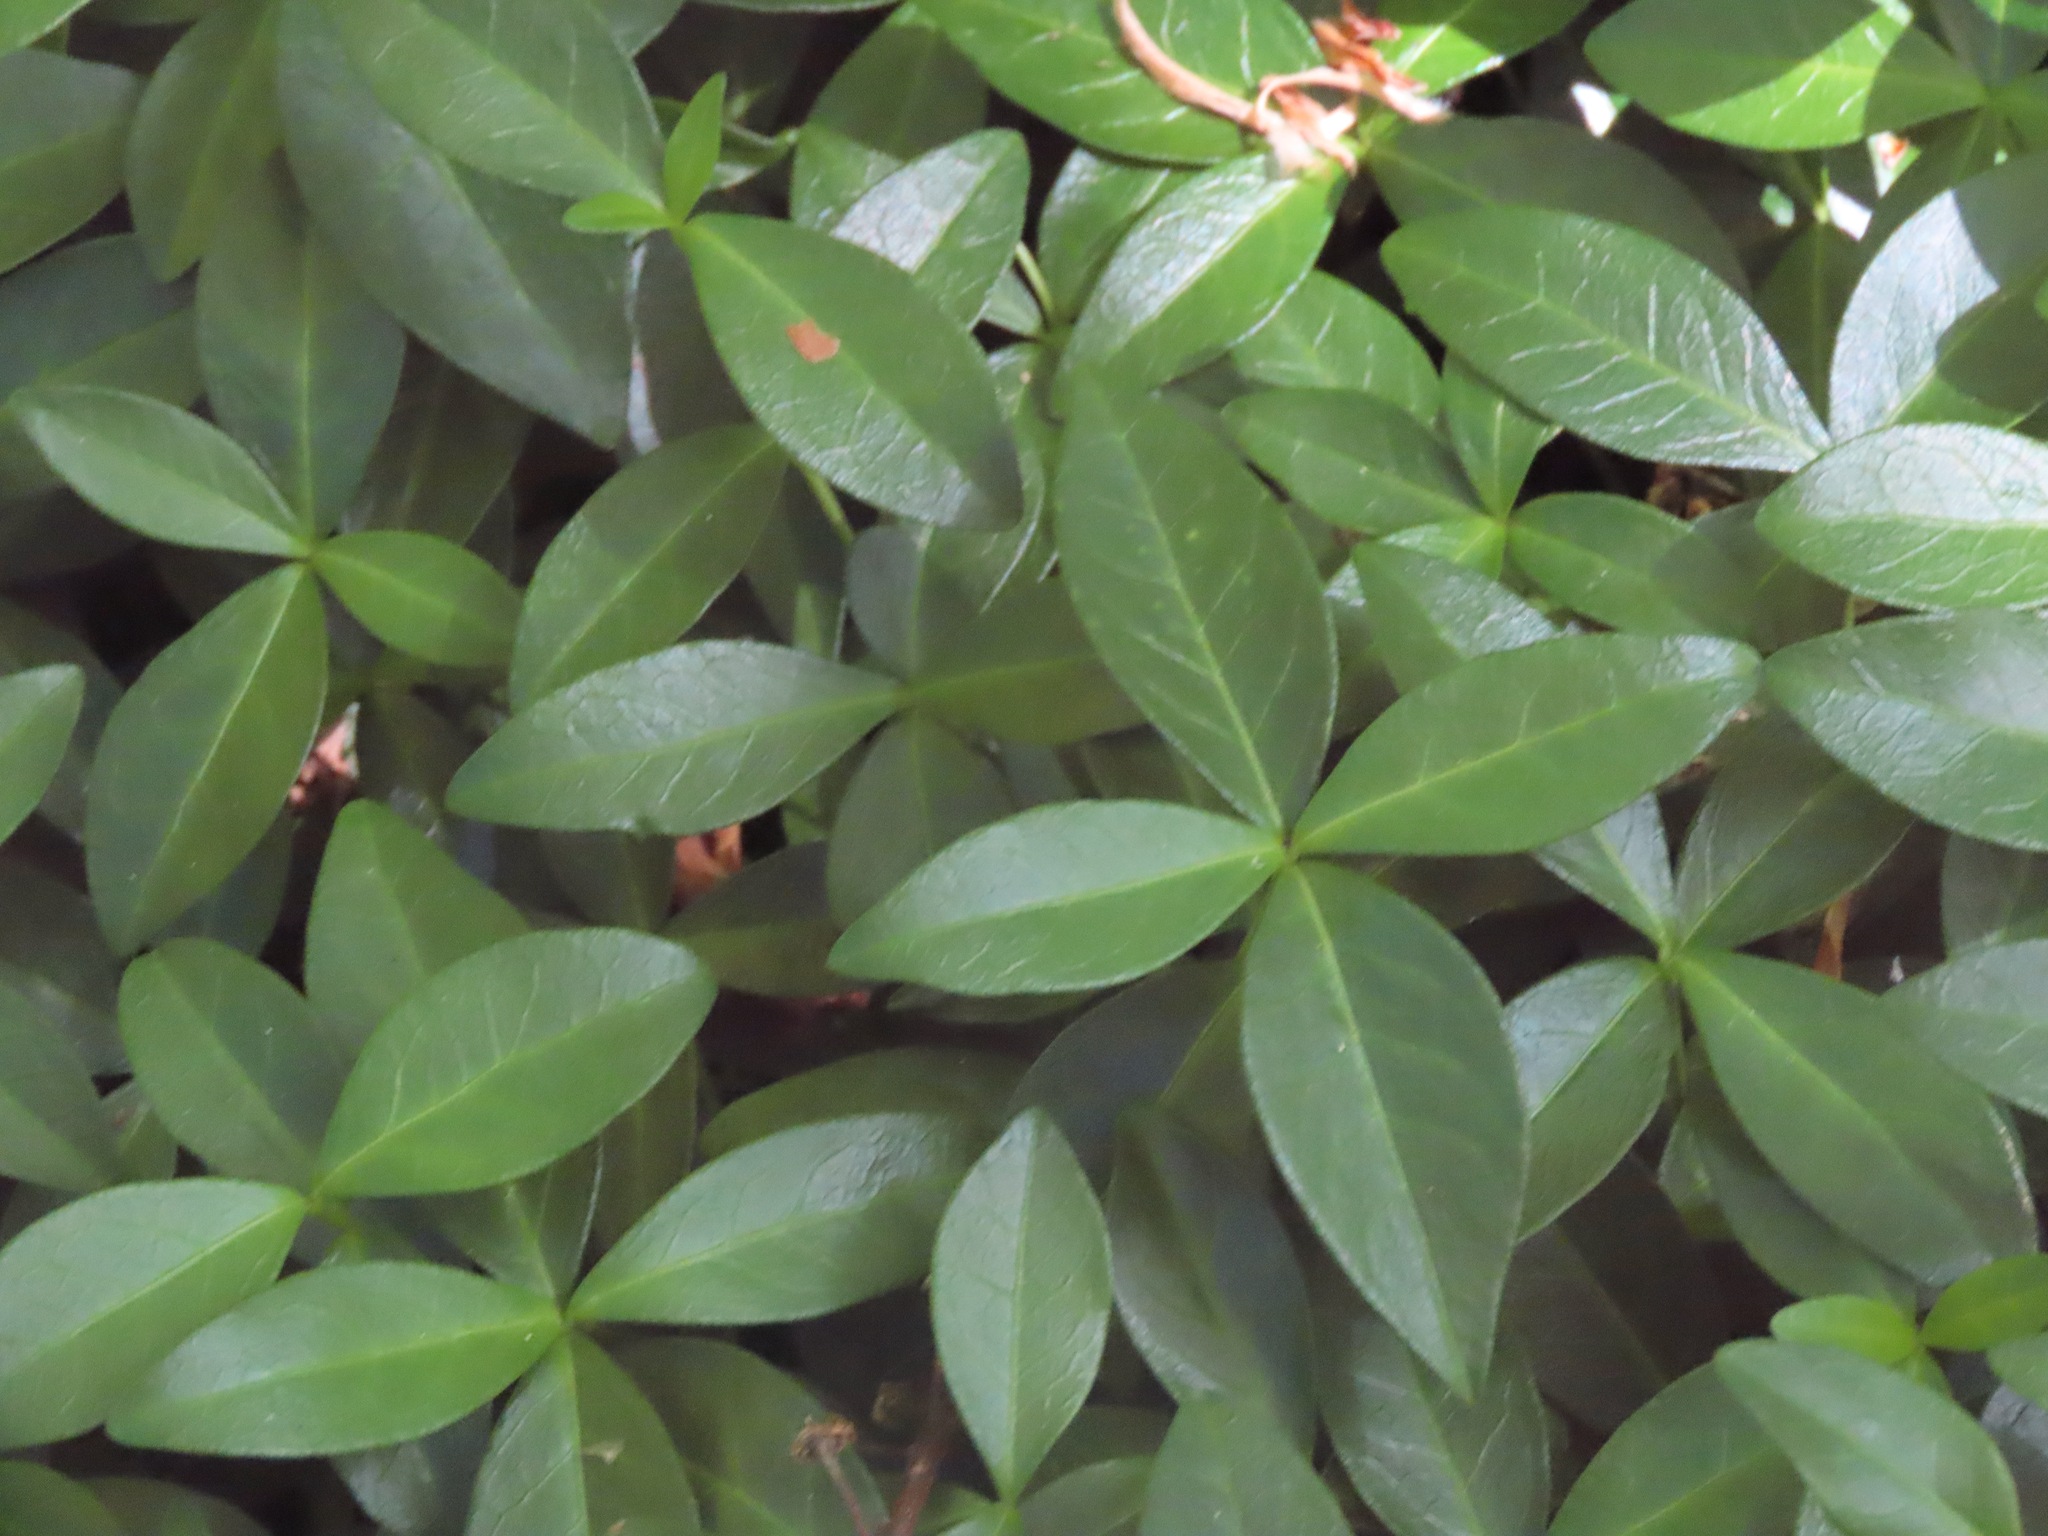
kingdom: Plantae
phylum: Tracheophyta
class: Magnoliopsida
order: Gentianales
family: Apocynaceae
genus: Vinca
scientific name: Vinca minor
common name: Lesser periwinkle
